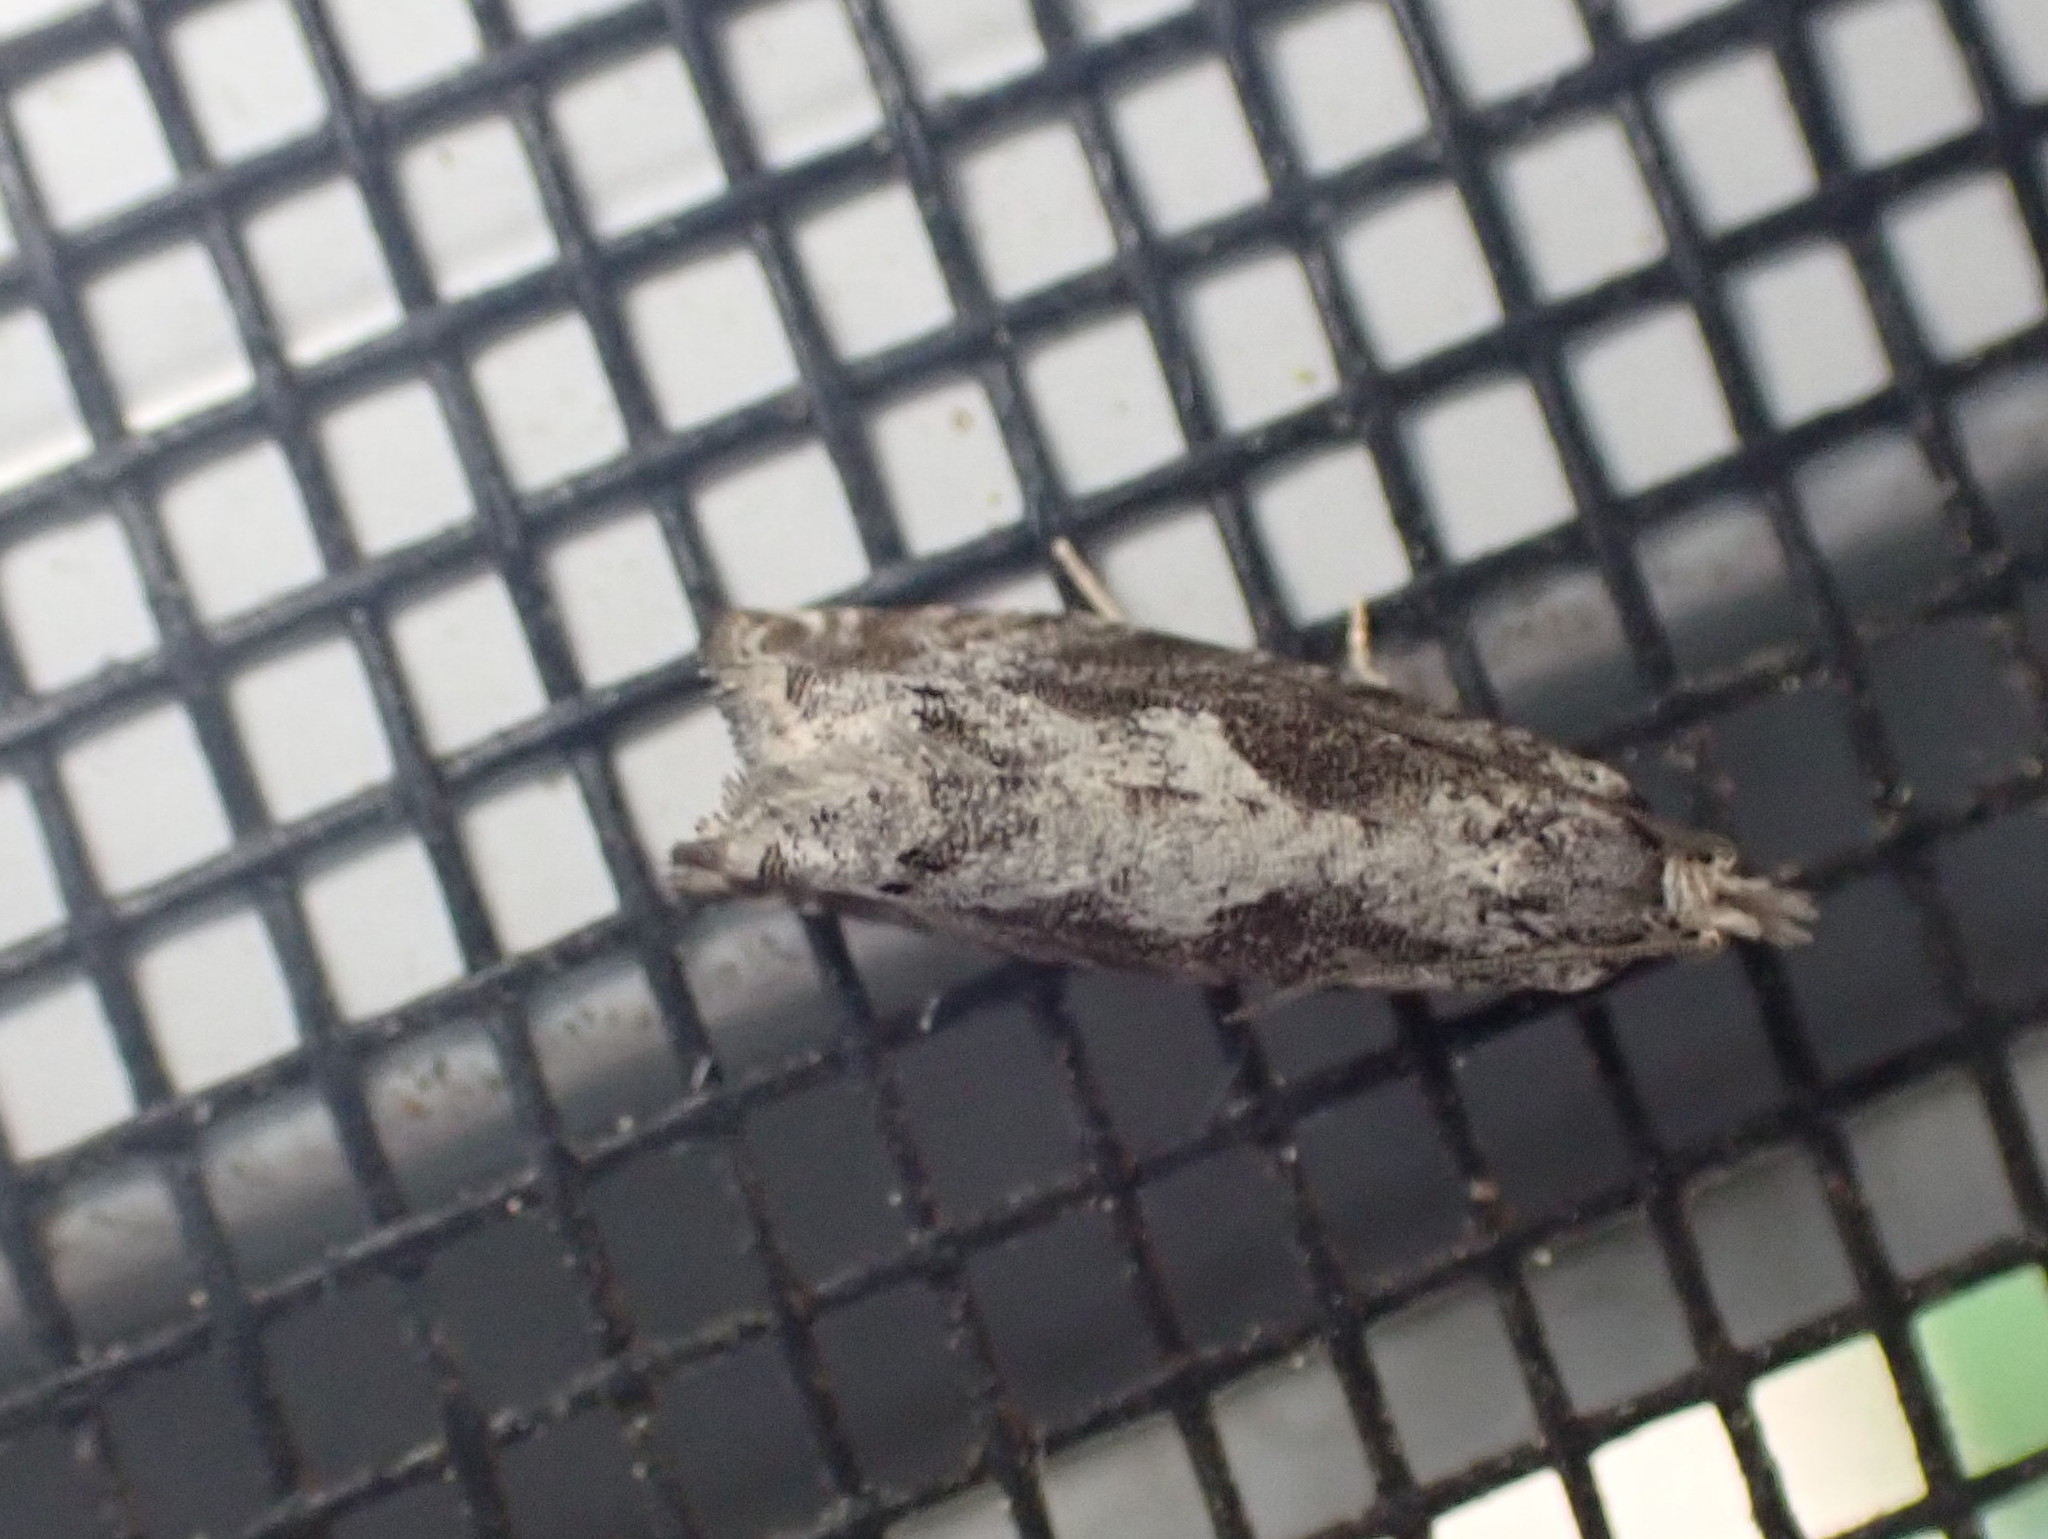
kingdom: Animalia
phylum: Arthropoda
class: Insecta
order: Lepidoptera
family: Tortricidae
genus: Catastega
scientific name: Catastega timidella
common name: Oak trumpet skeletonizer moth
